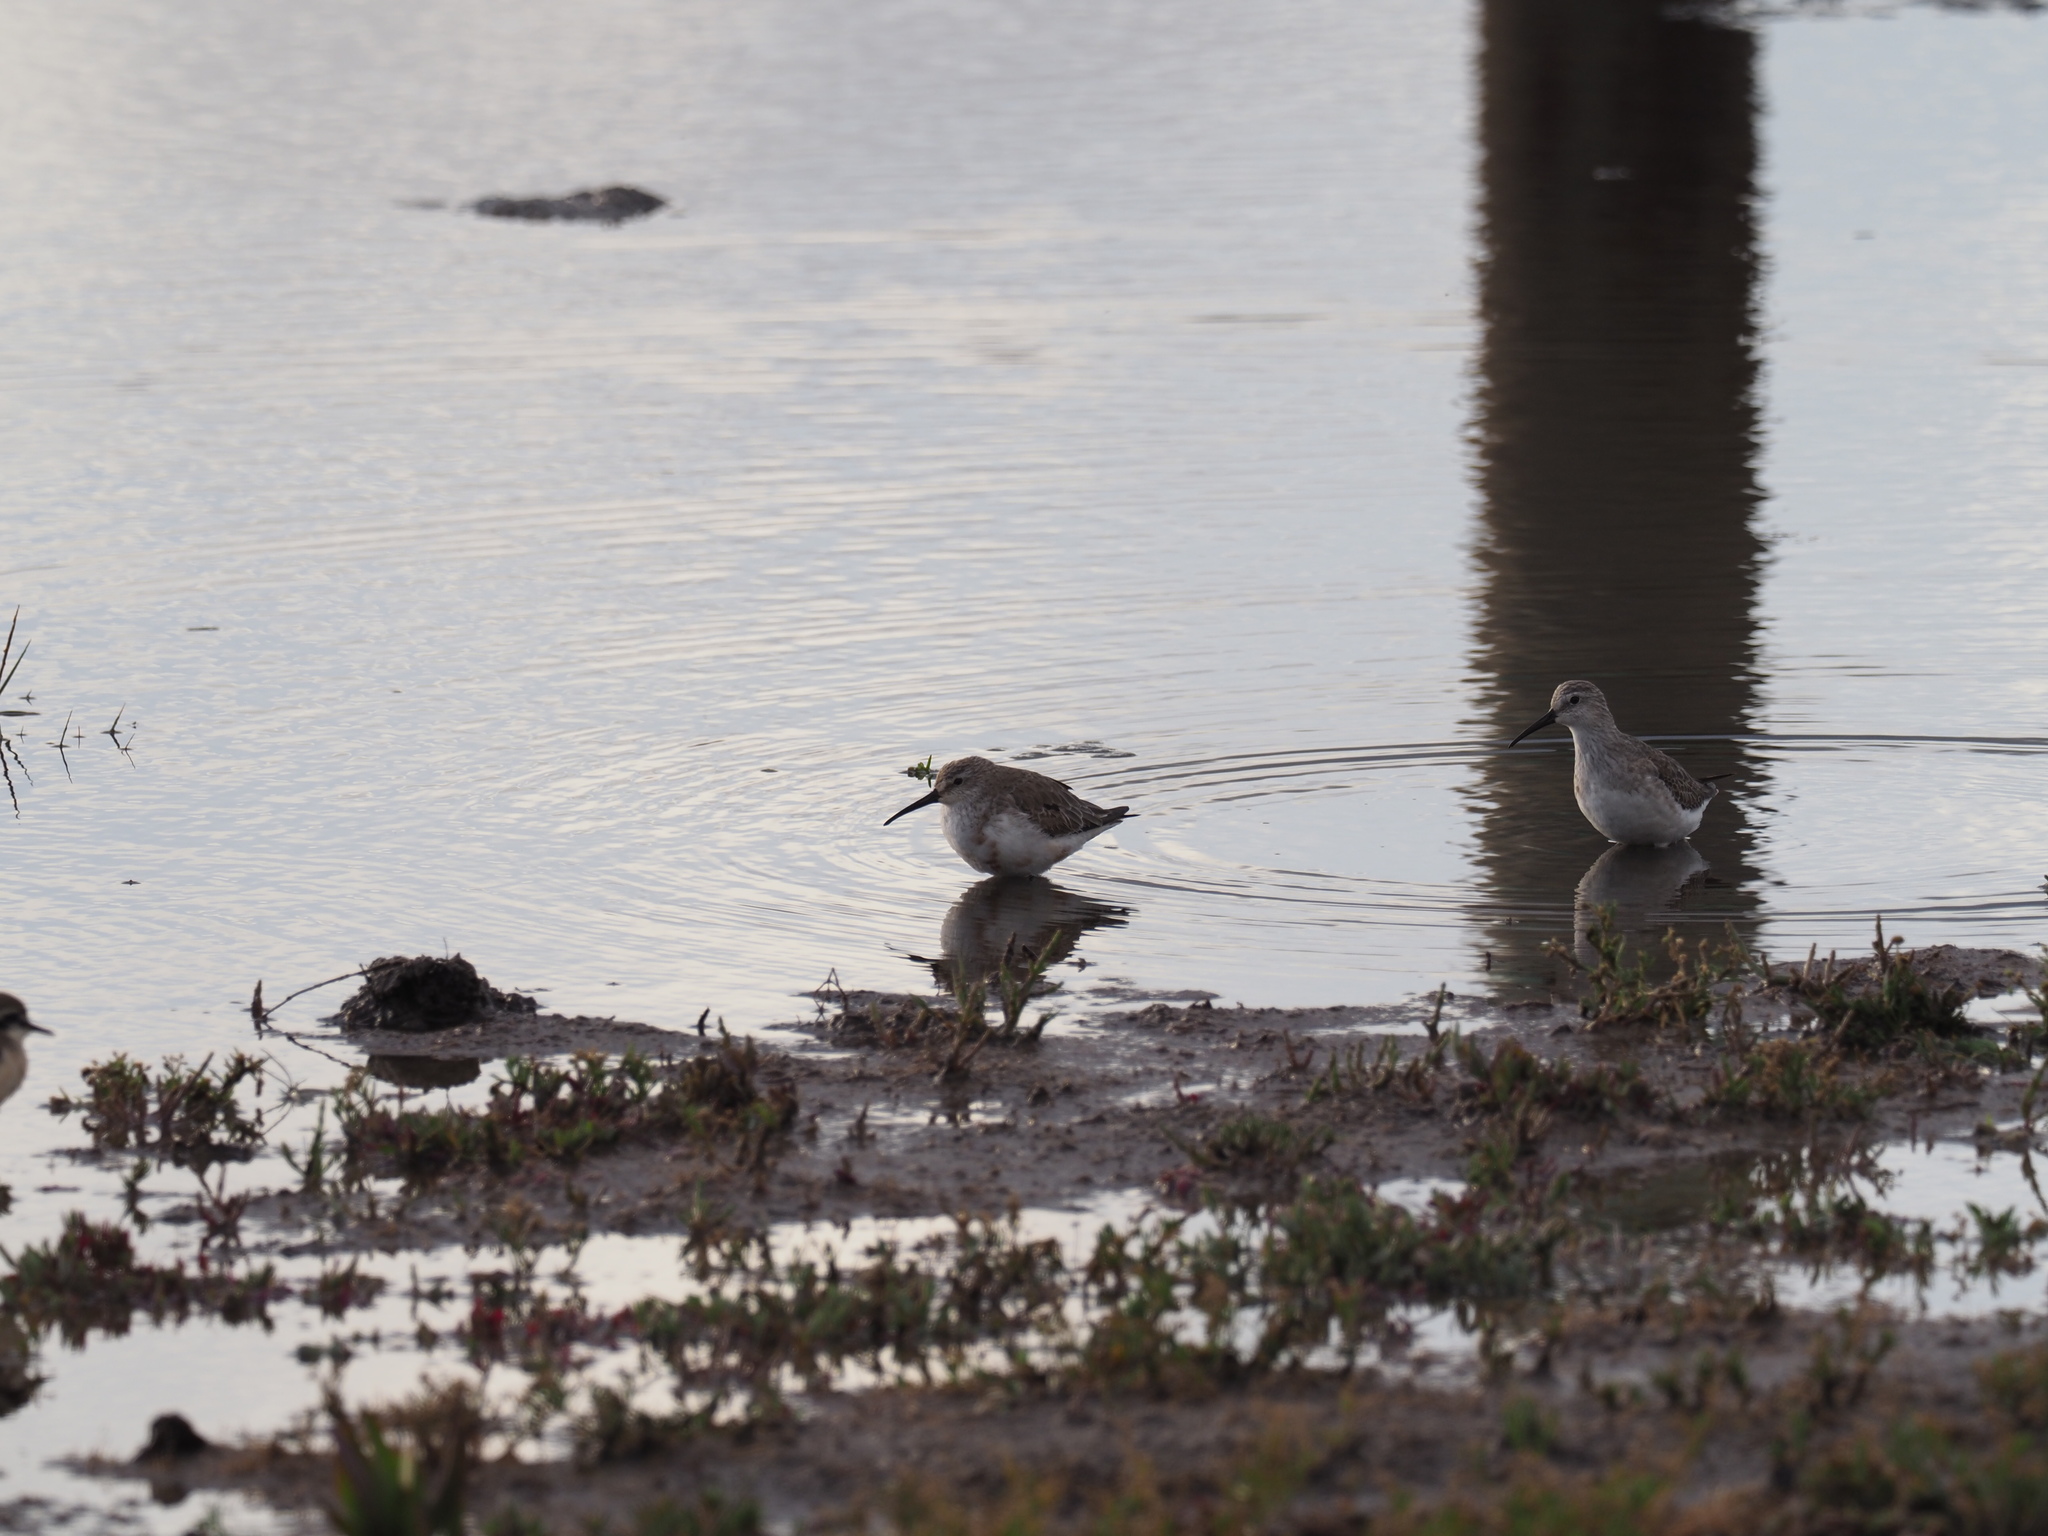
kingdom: Animalia
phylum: Chordata
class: Aves
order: Charadriiformes
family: Scolopacidae
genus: Calidris
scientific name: Calidris ferruginea
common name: Curlew sandpiper
